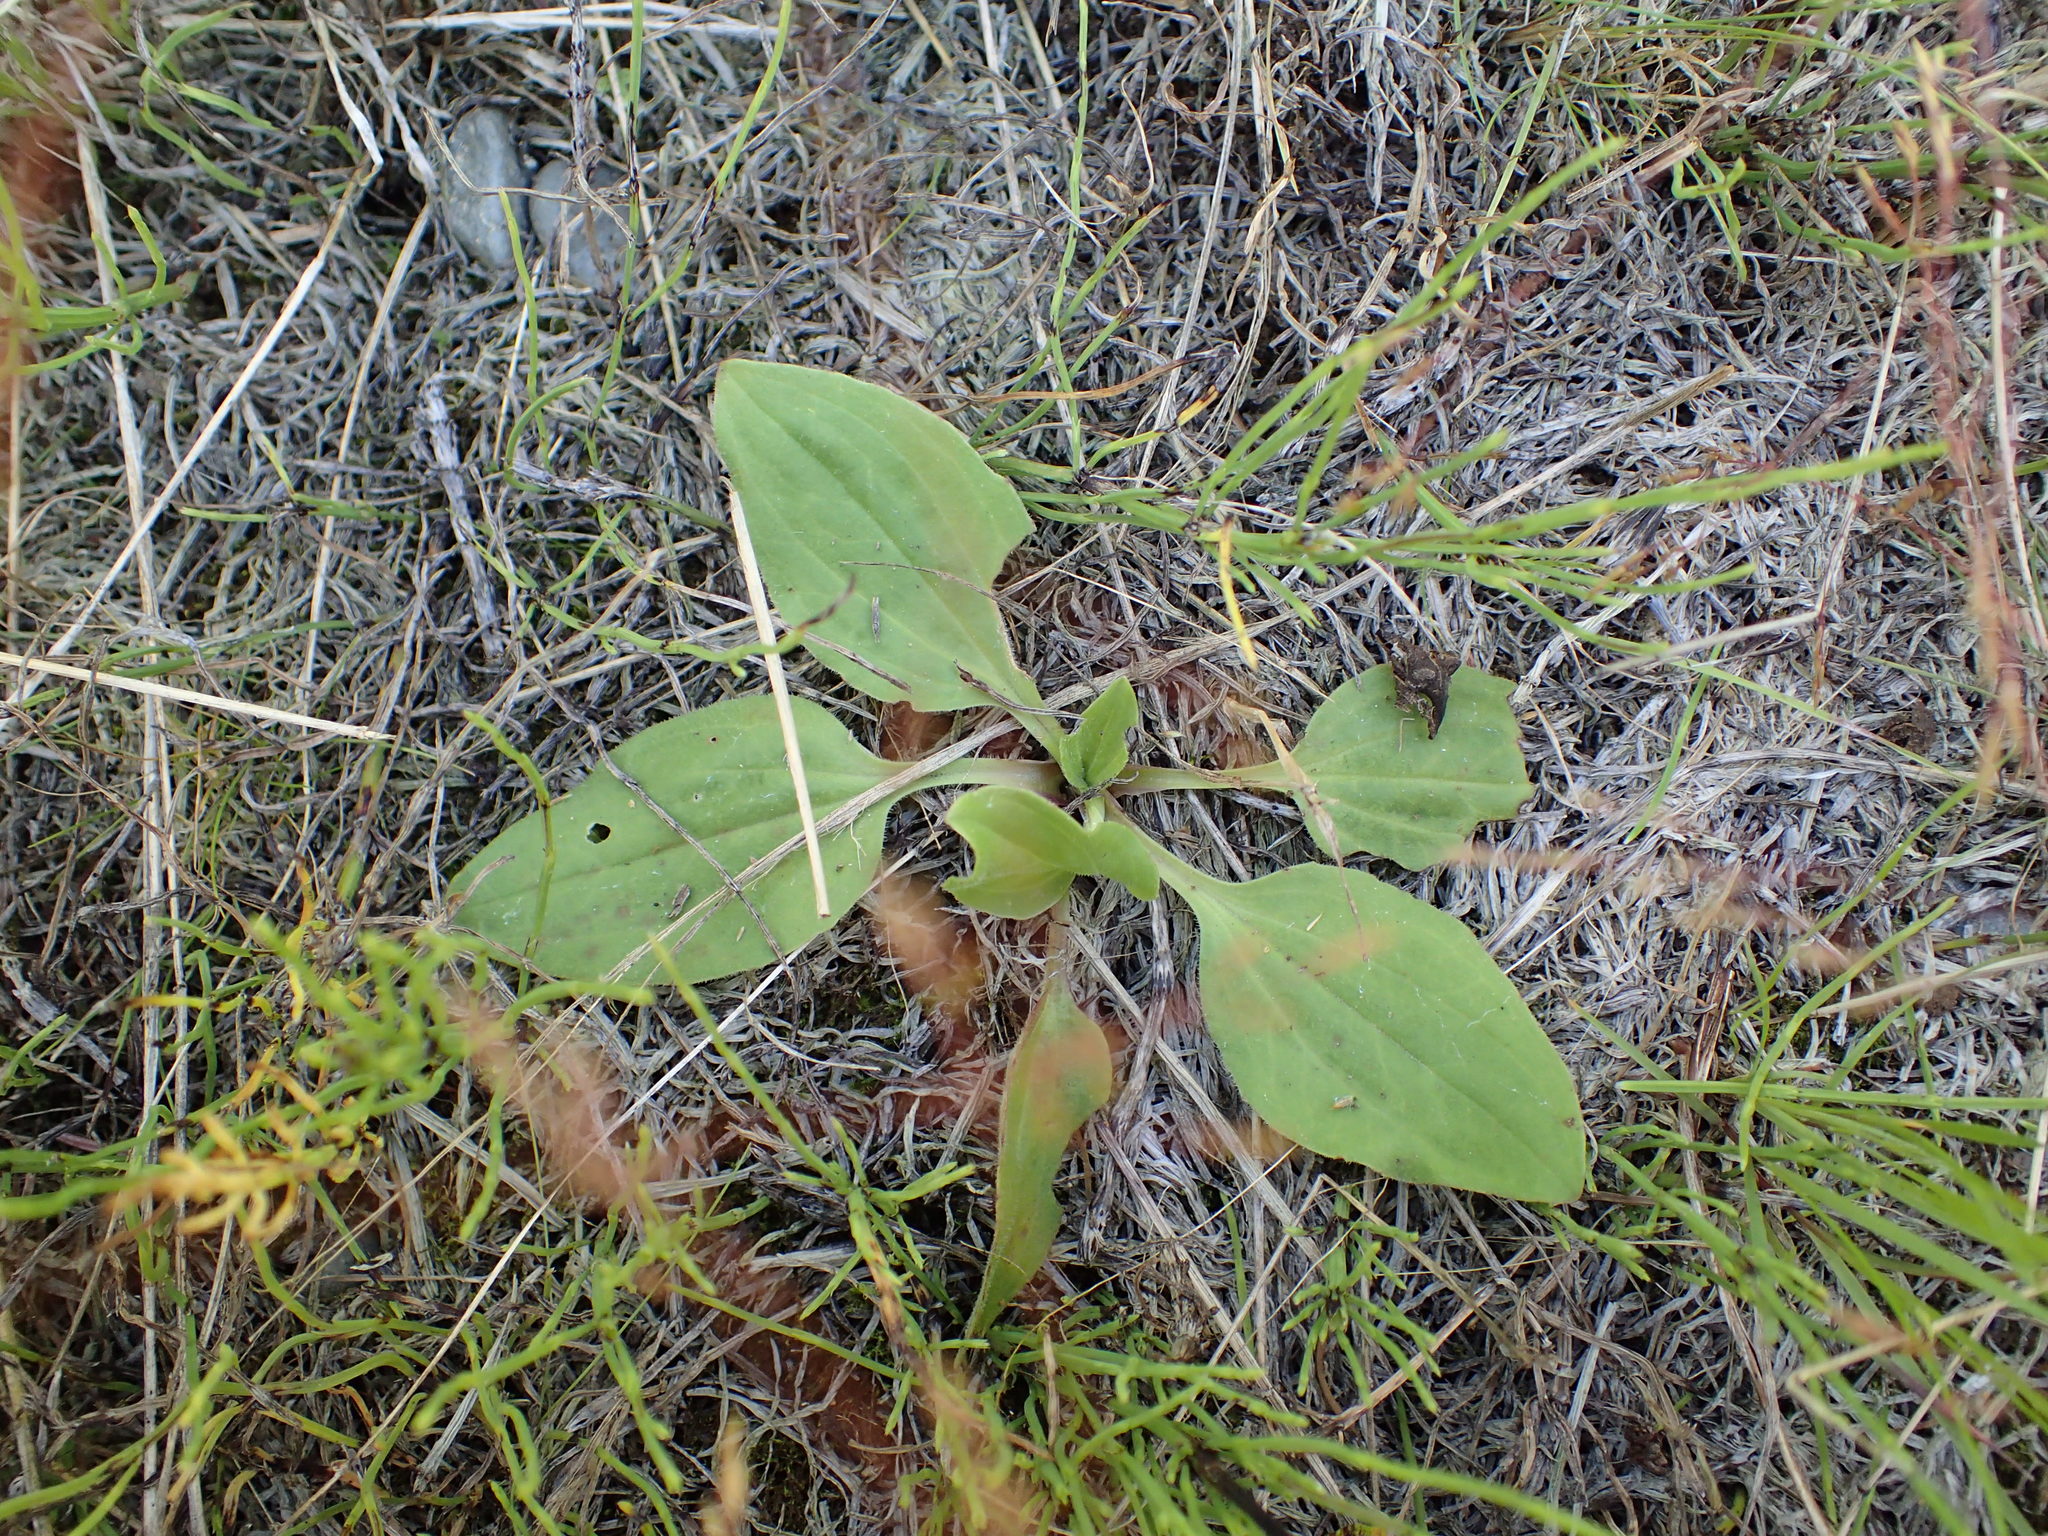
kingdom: Plantae
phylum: Tracheophyta
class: Magnoliopsida
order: Lamiales
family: Plantaginaceae
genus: Plantago
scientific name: Plantago major
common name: Common plantain
